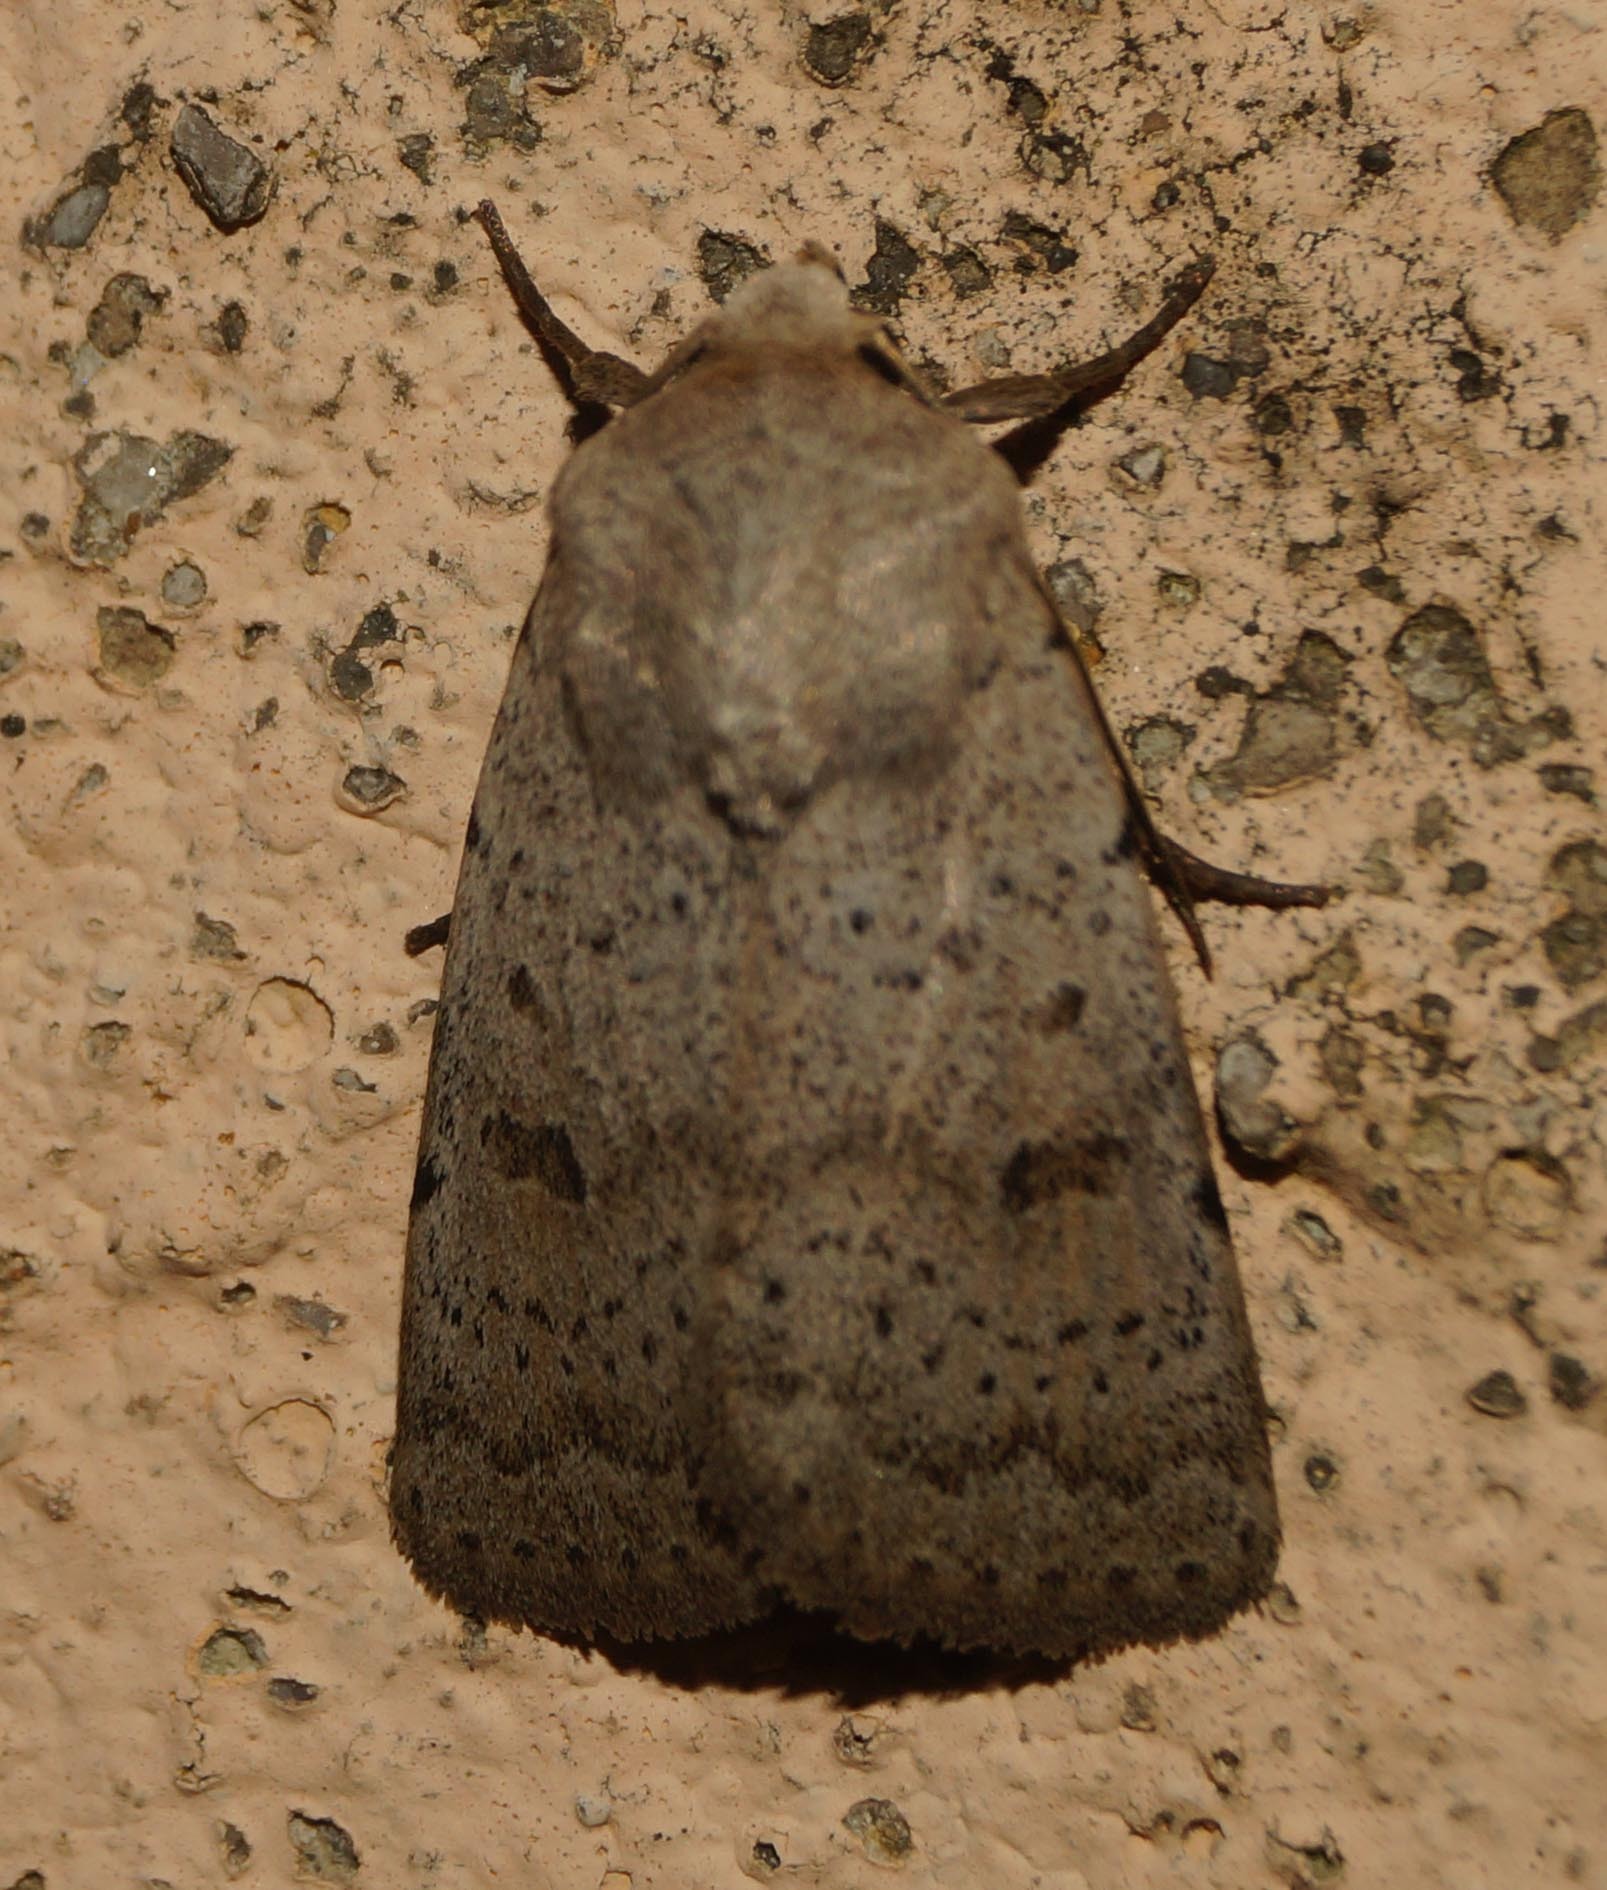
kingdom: Animalia
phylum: Arthropoda
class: Insecta
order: Lepidoptera
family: Noctuidae
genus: Hoplodrina
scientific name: Hoplodrina respersa
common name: Sprinkled rustic
